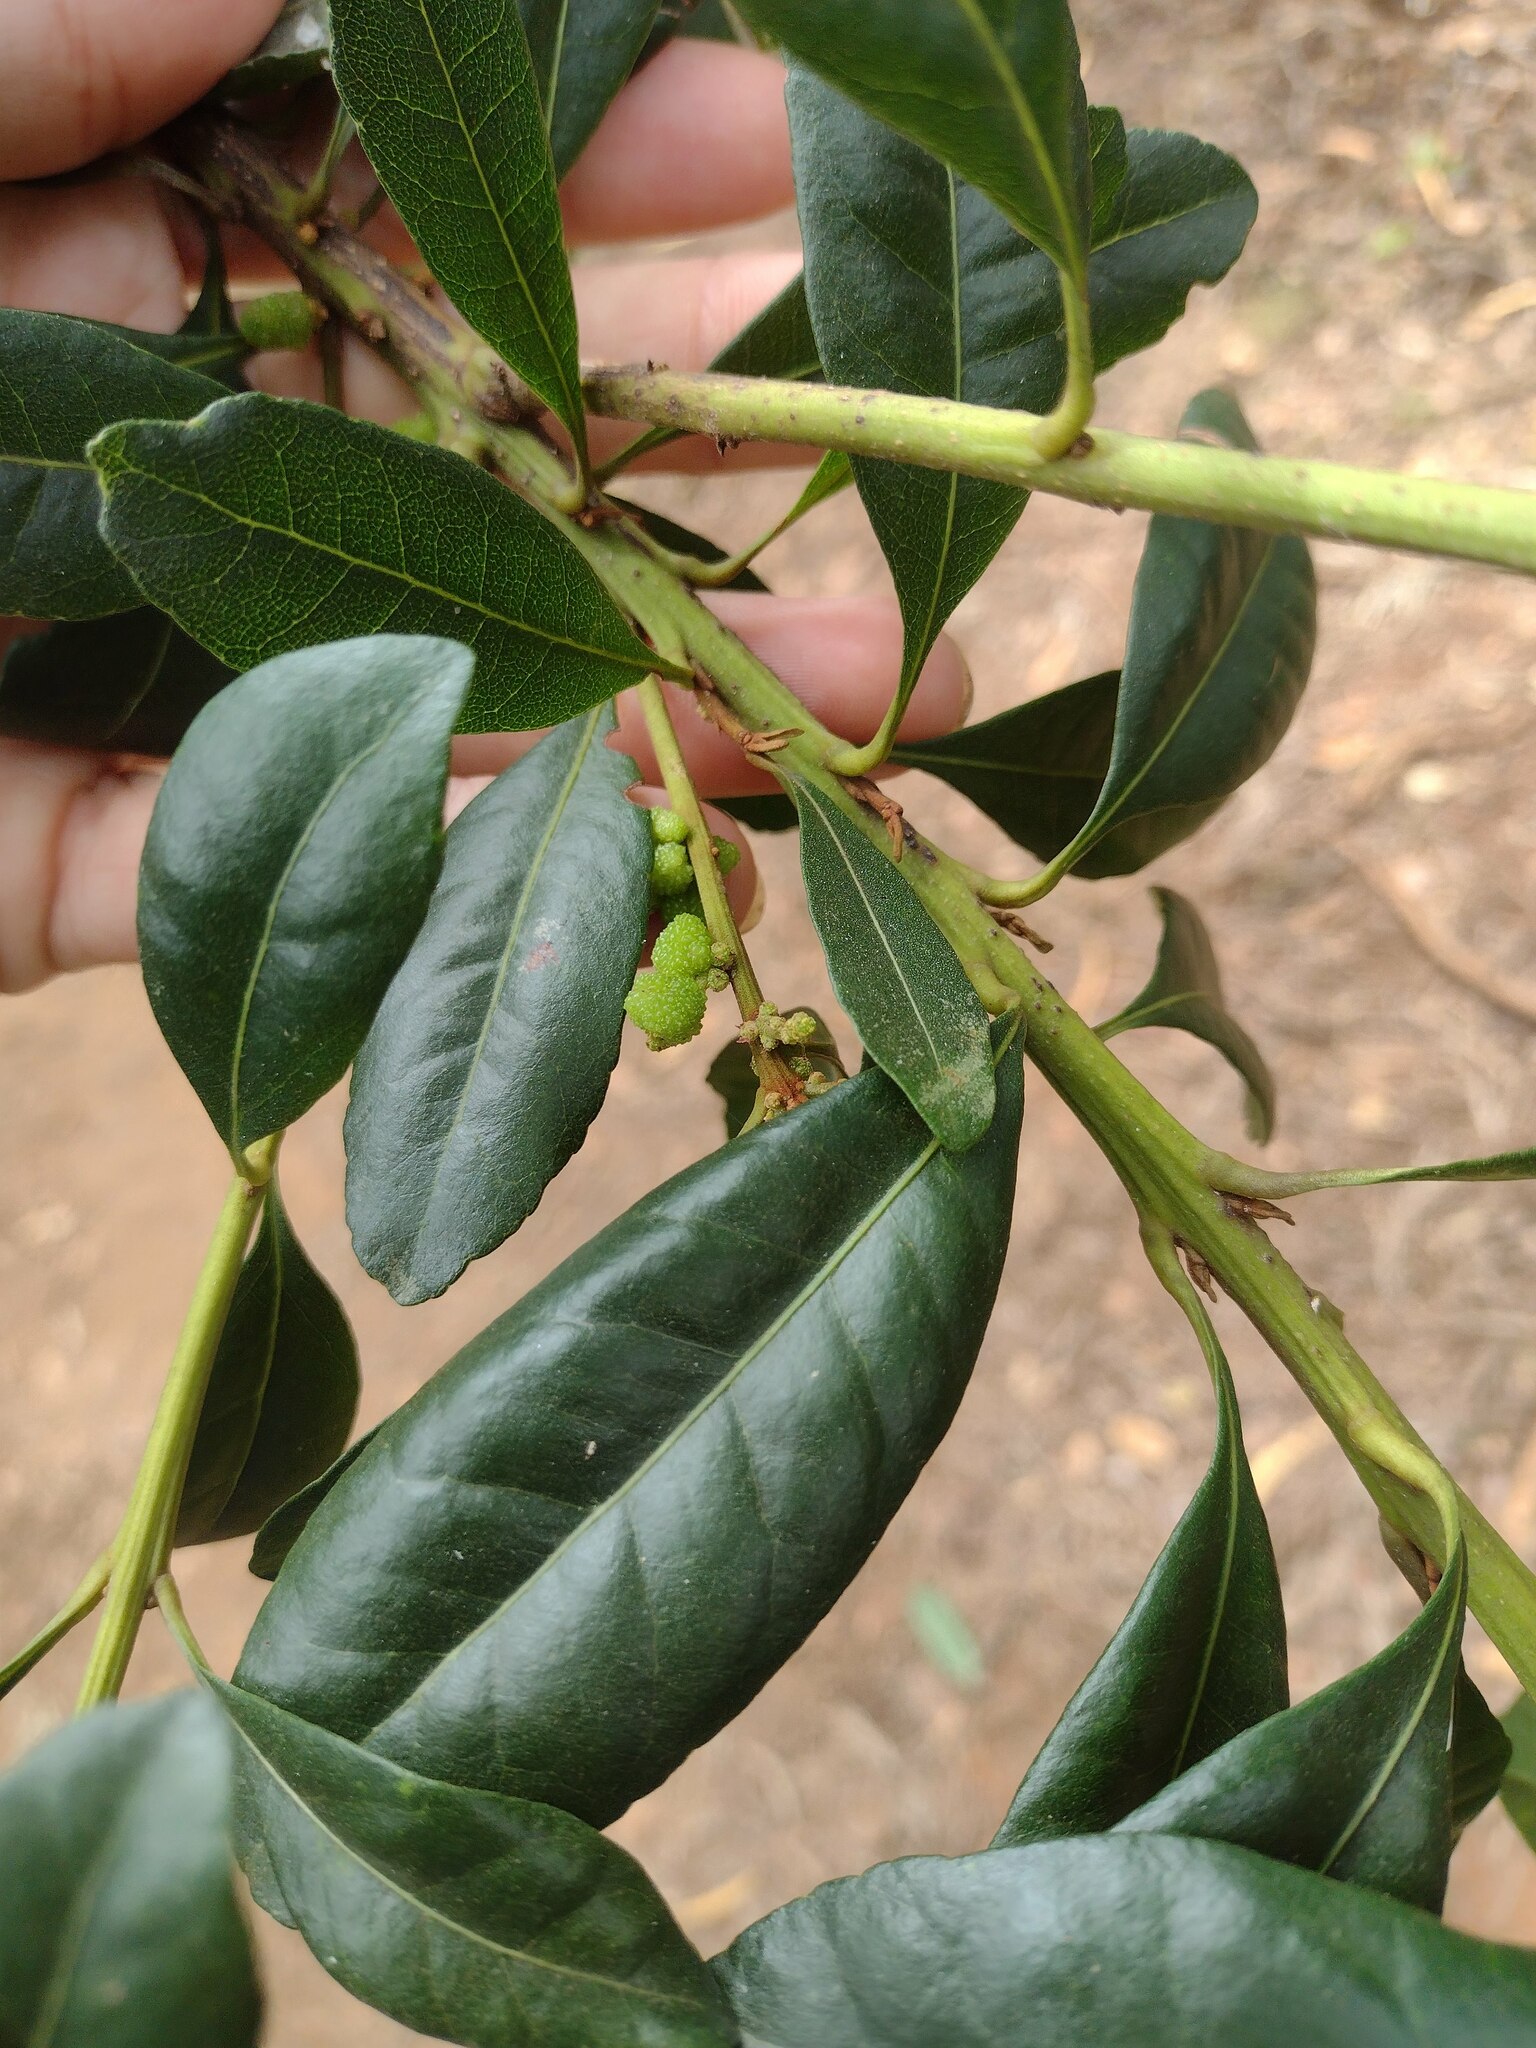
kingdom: Plantae
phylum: Tracheophyta
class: Magnoliopsida
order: Fagales
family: Myricaceae
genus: Morella
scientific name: Morella faya
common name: Firetree
